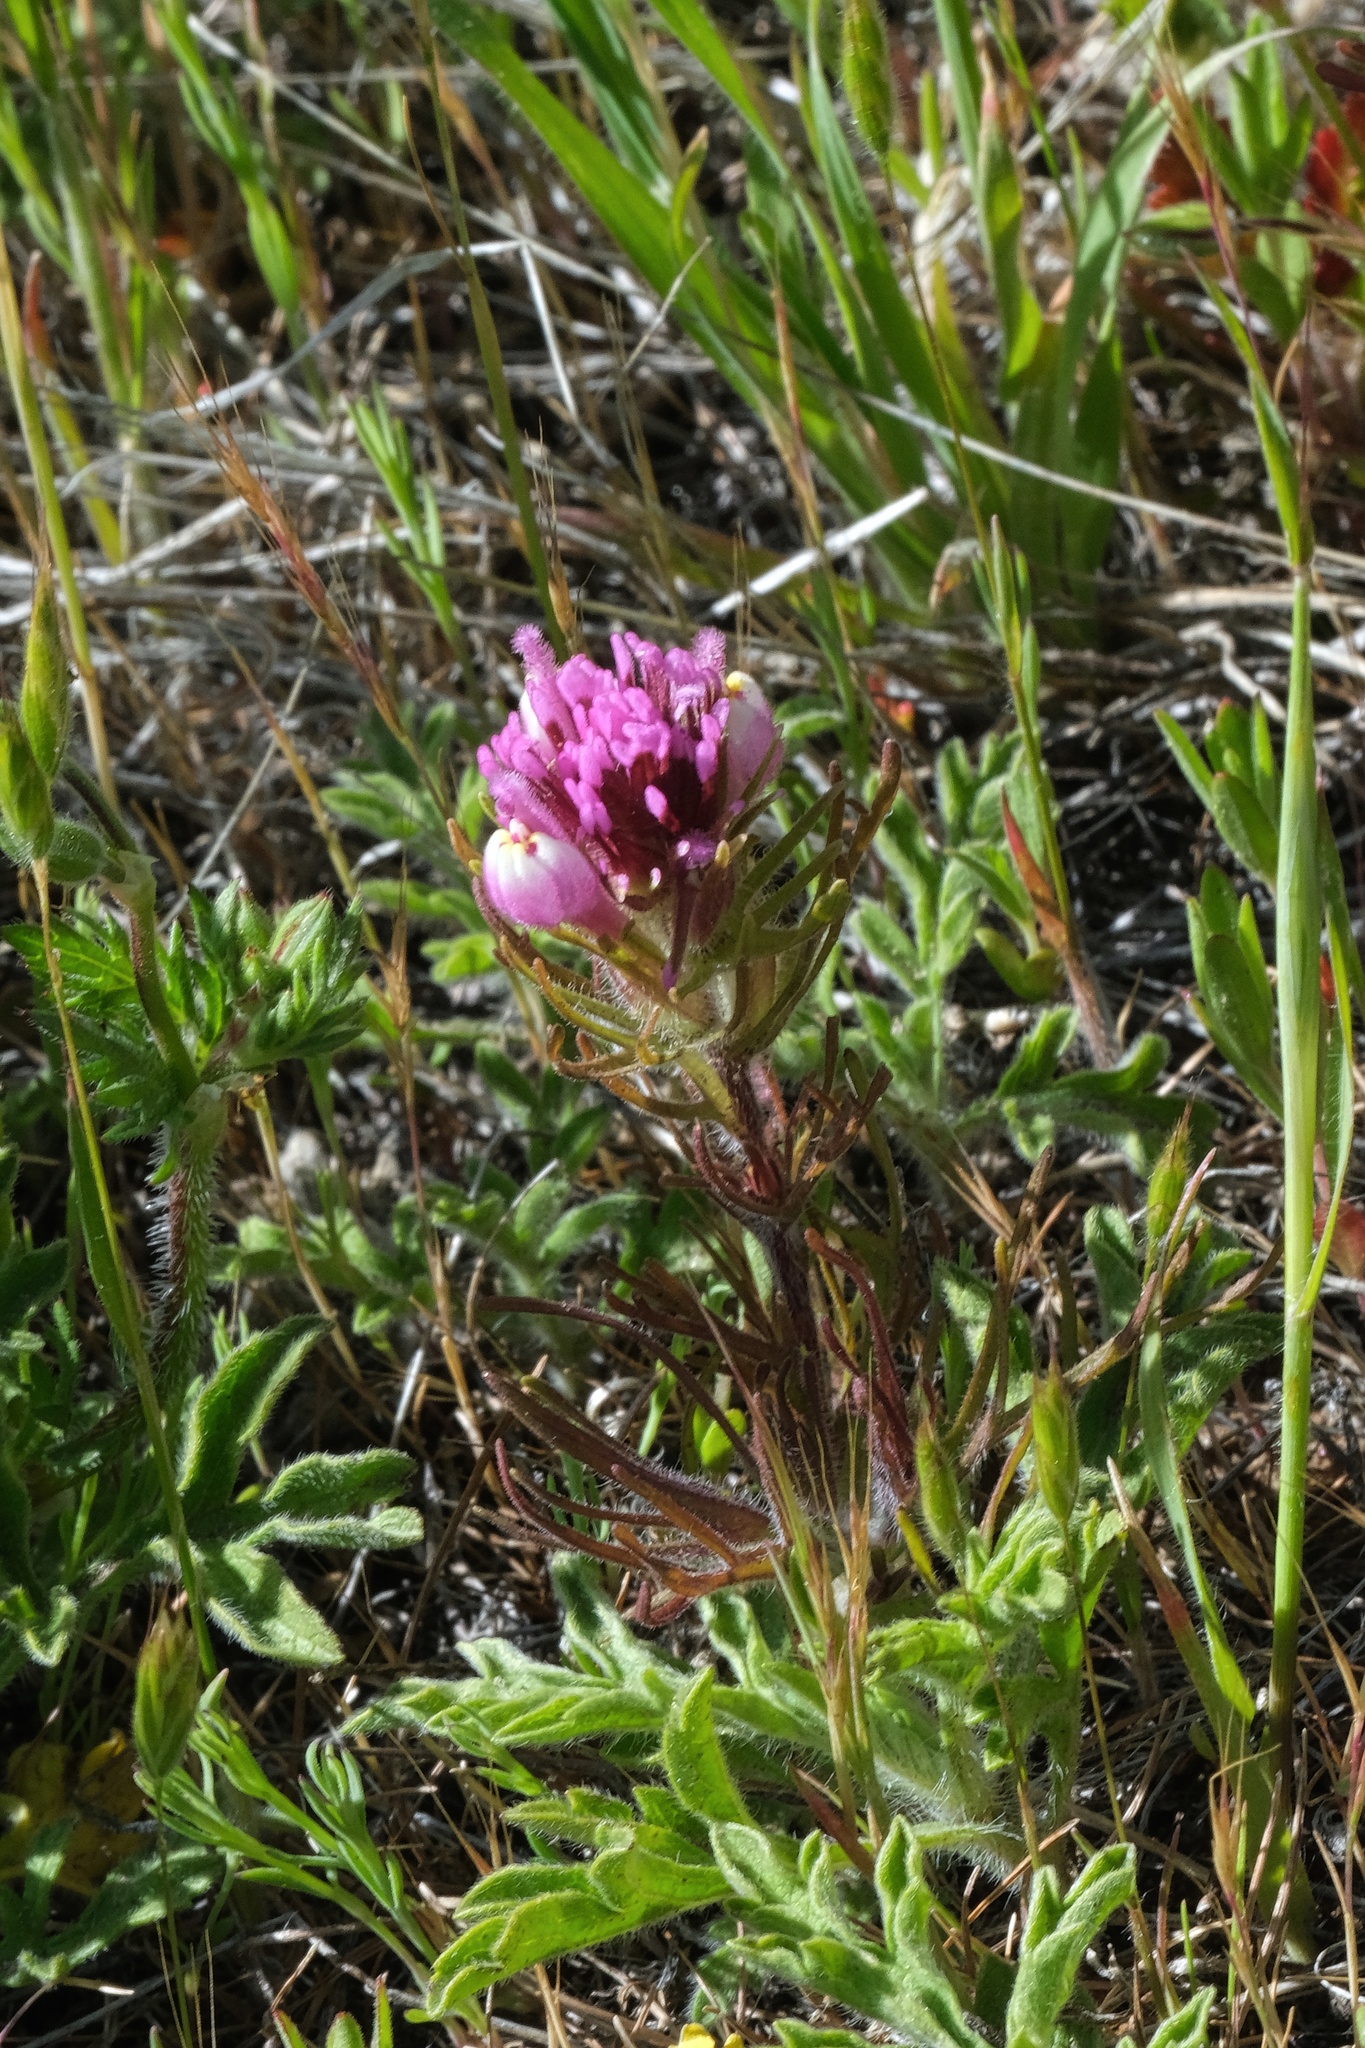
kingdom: Plantae
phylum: Tracheophyta
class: Magnoliopsida
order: Lamiales
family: Orobanchaceae
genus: Castilleja
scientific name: Castilleja exserta
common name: Purple owl-clover
